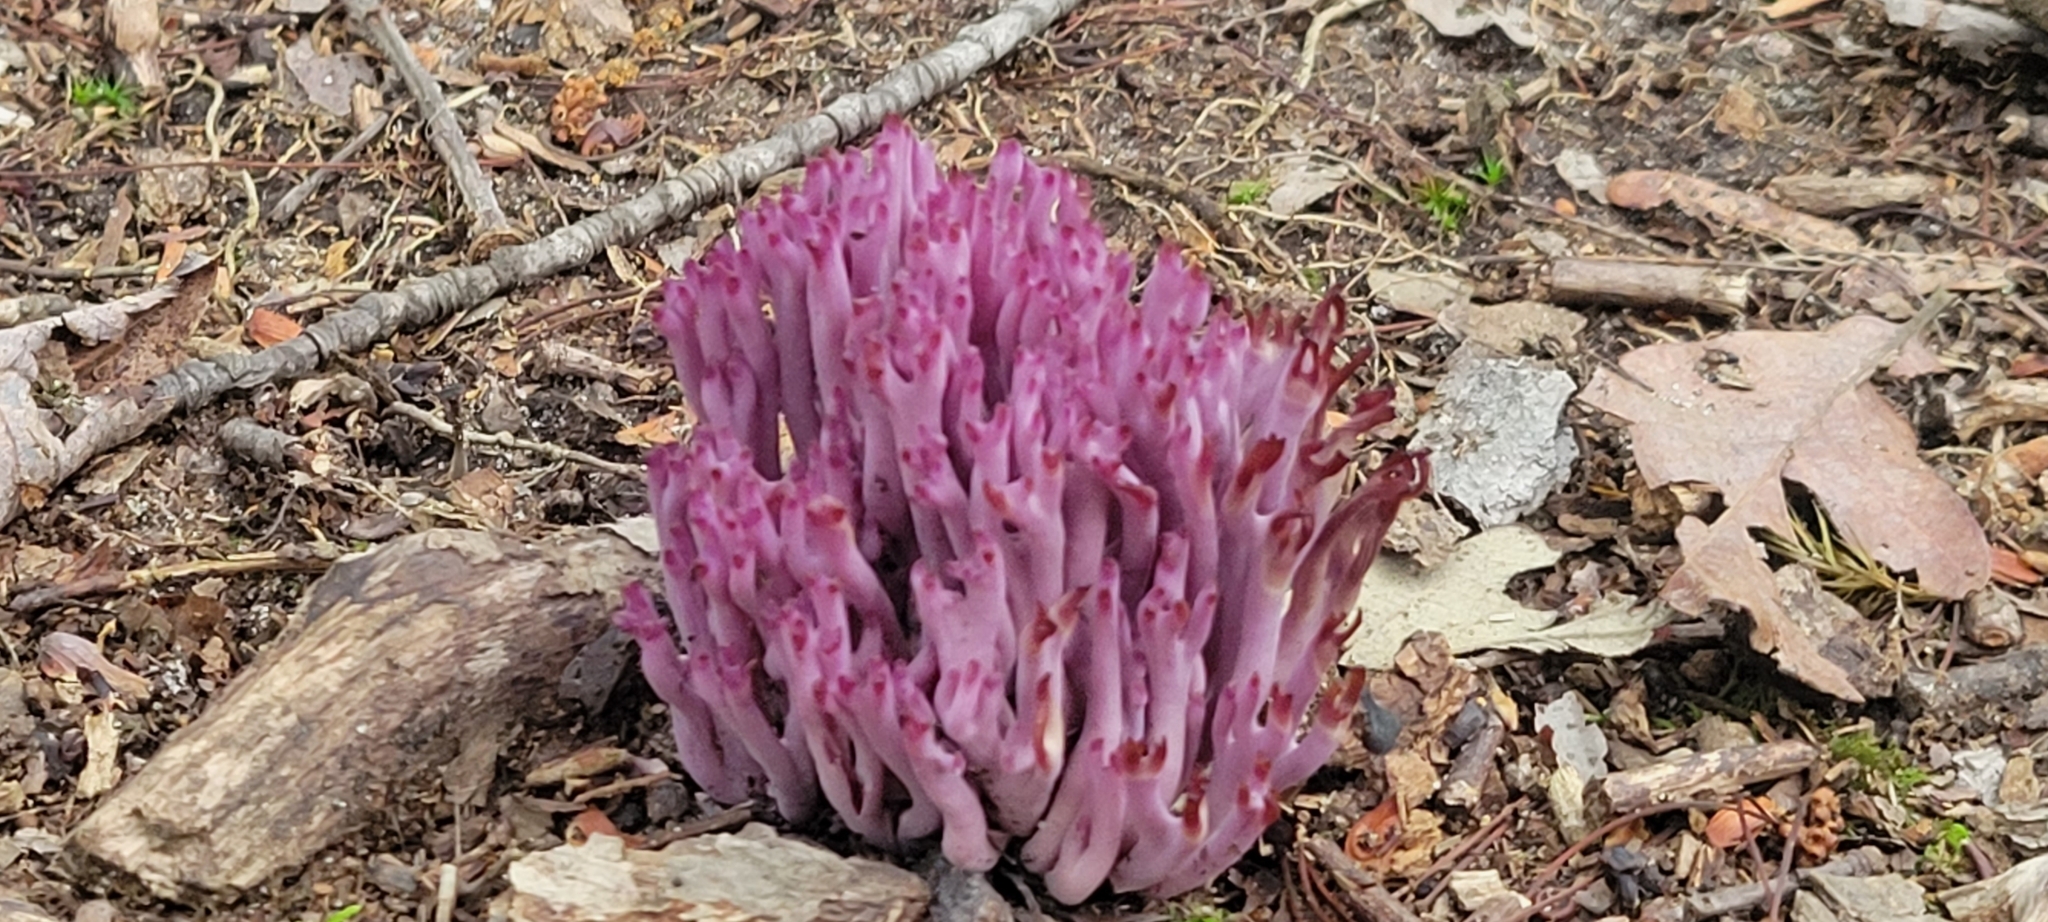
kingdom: Fungi
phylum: Basidiomycota
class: Agaricomycetes
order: Agaricales
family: Clavariaceae
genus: Clavaria
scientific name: Clavaria zollingeri
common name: Violet coral
